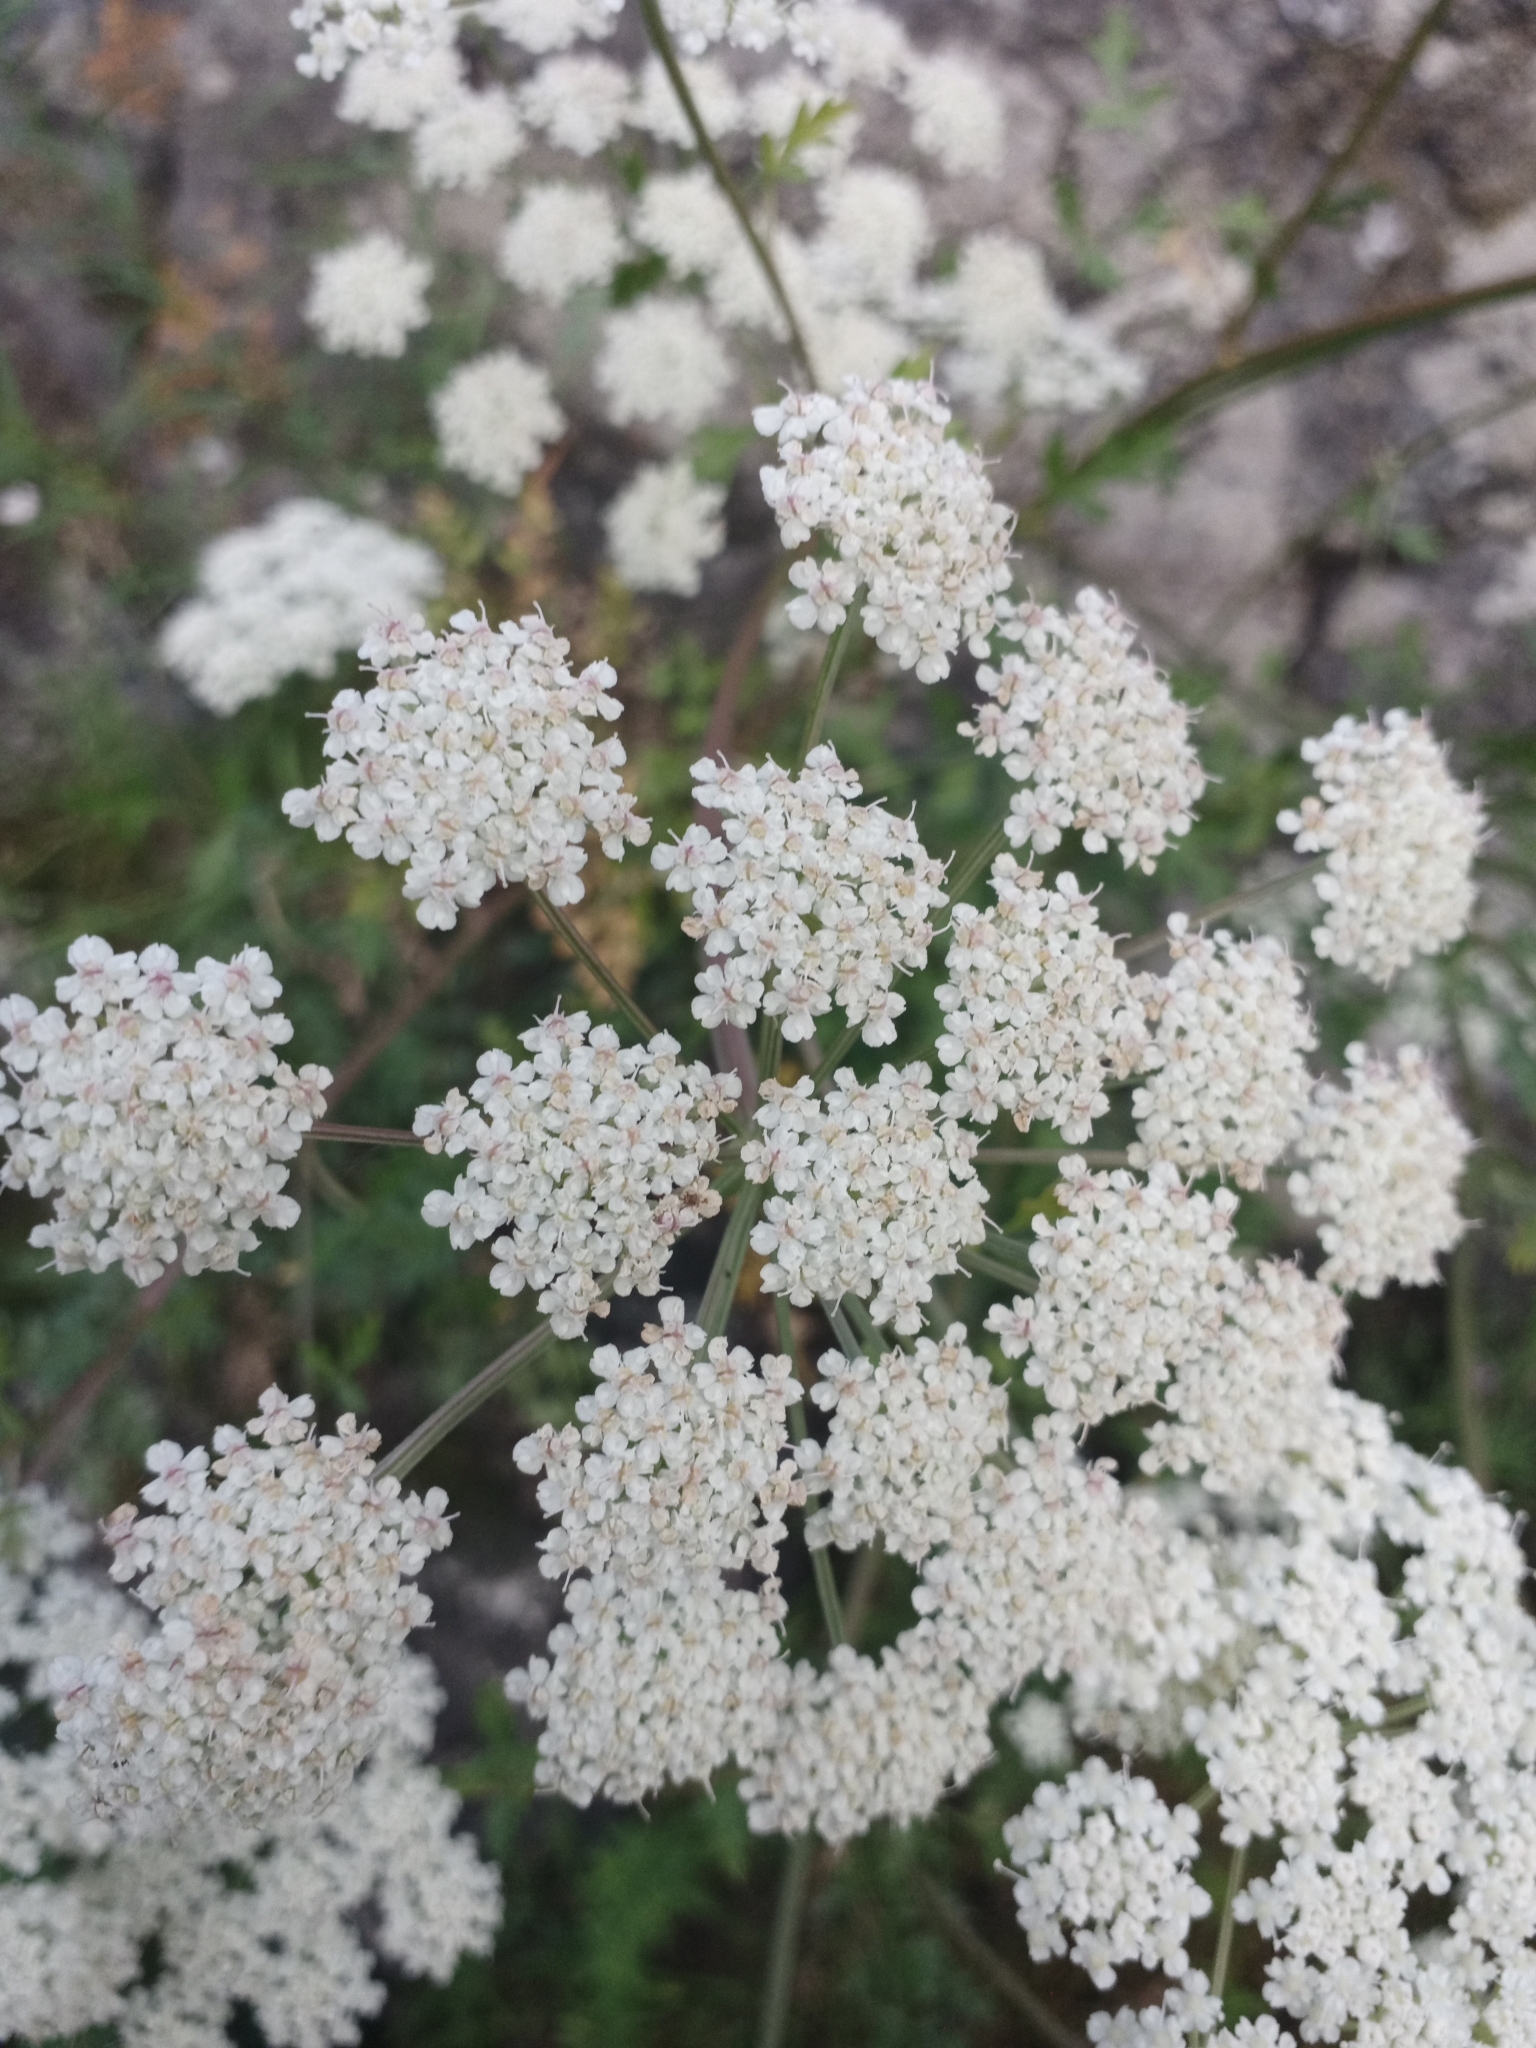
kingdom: Plantae
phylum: Tracheophyta
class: Magnoliopsida
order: Apiales
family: Apiaceae
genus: Seseli
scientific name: Seseli libanotis
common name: Mooncarrot
